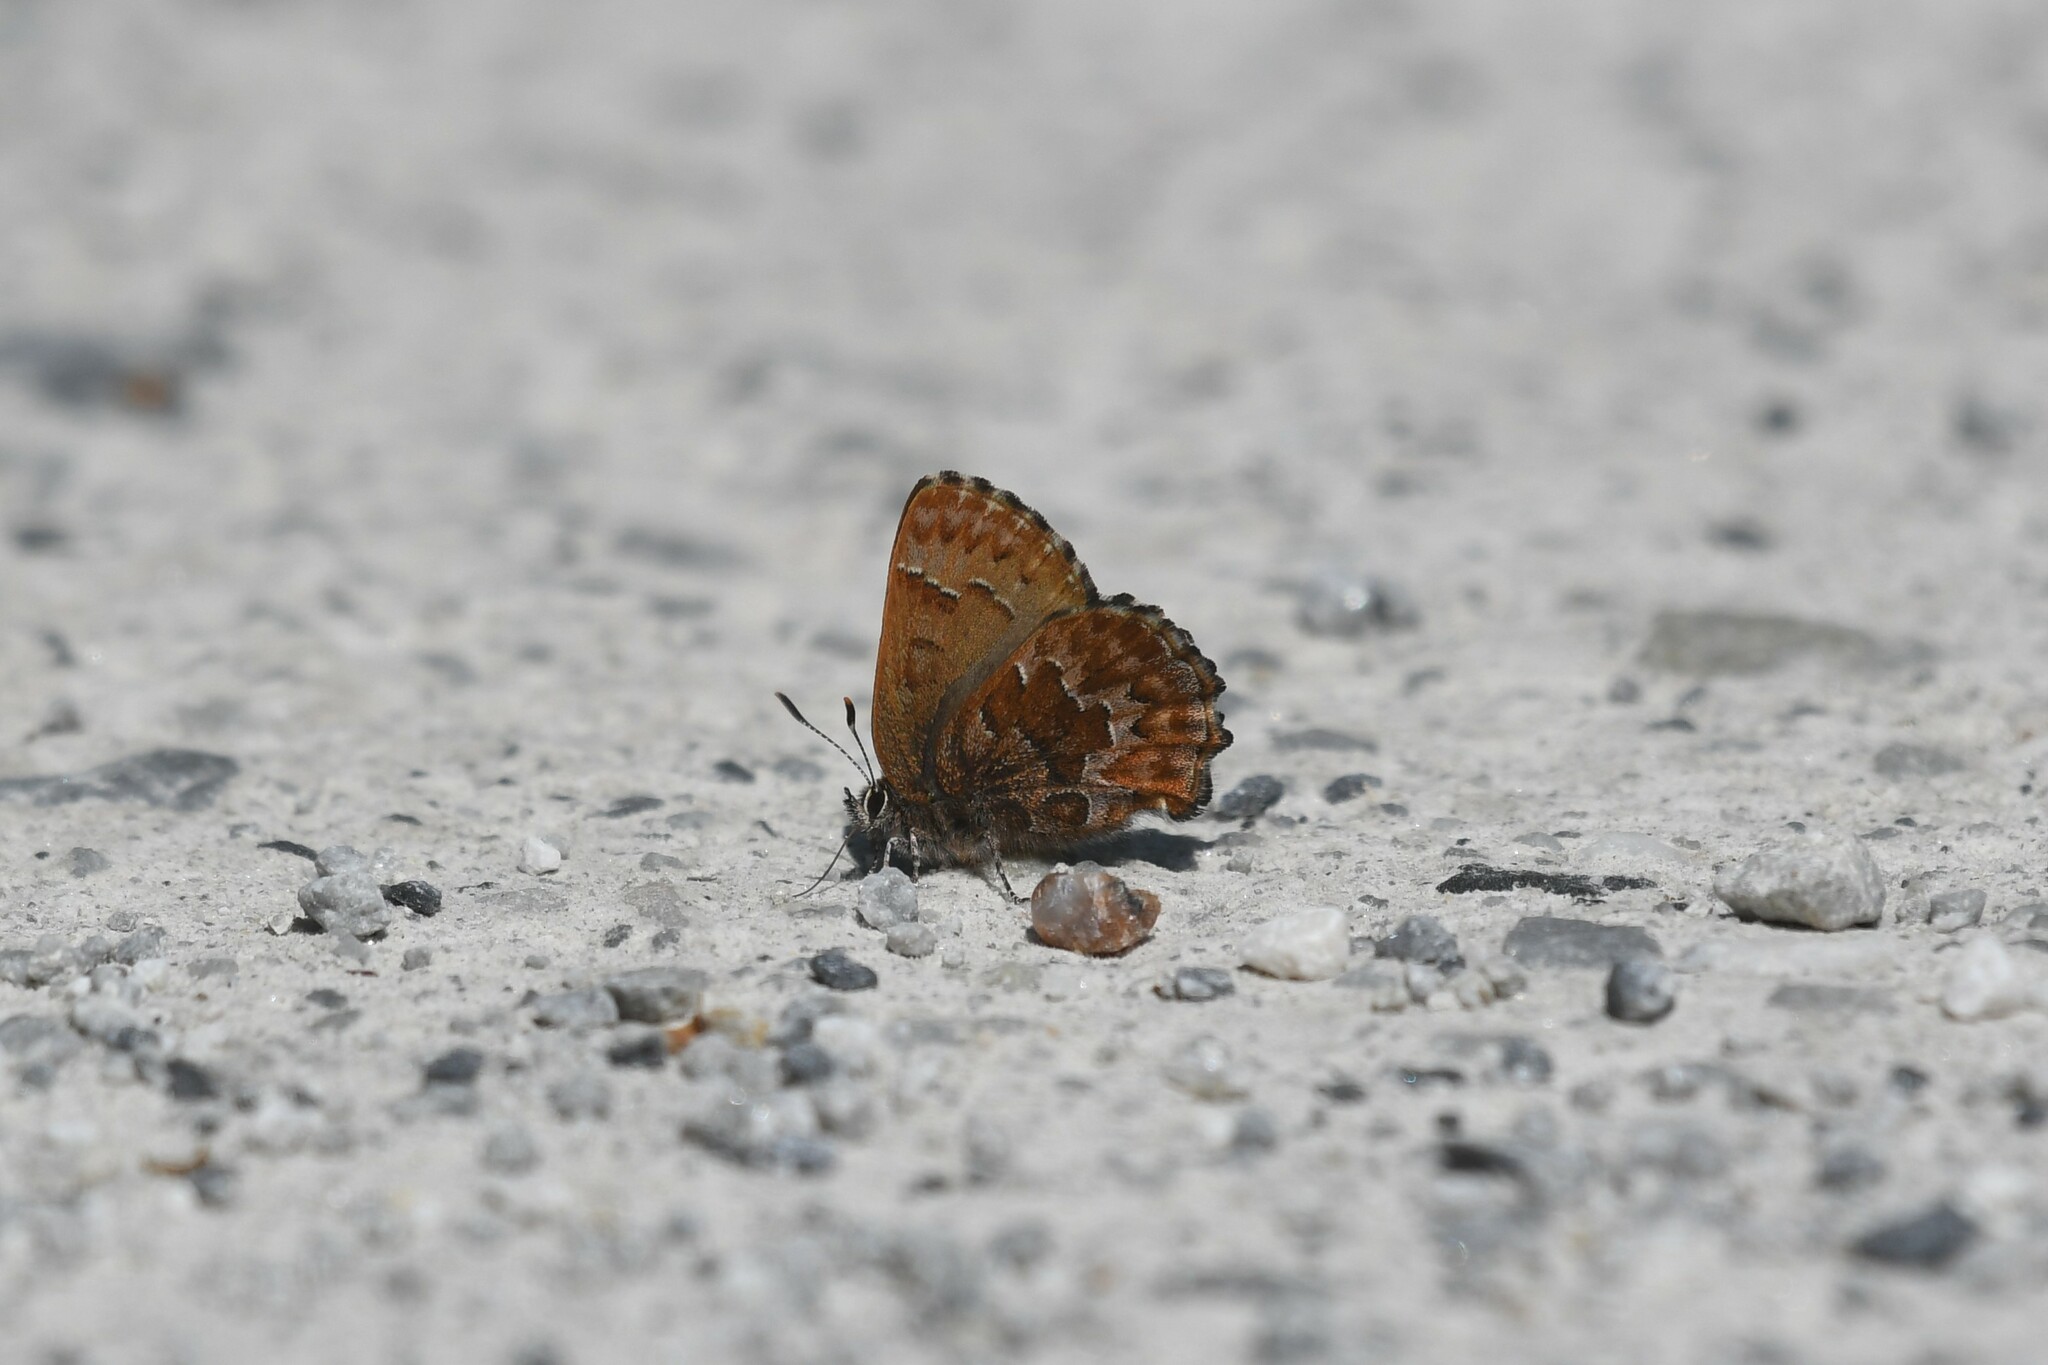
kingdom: Animalia
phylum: Arthropoda
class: Insecta
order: Lepidoptera
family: Lycaenidae
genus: Incisalia
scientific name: Incisalia niphon
